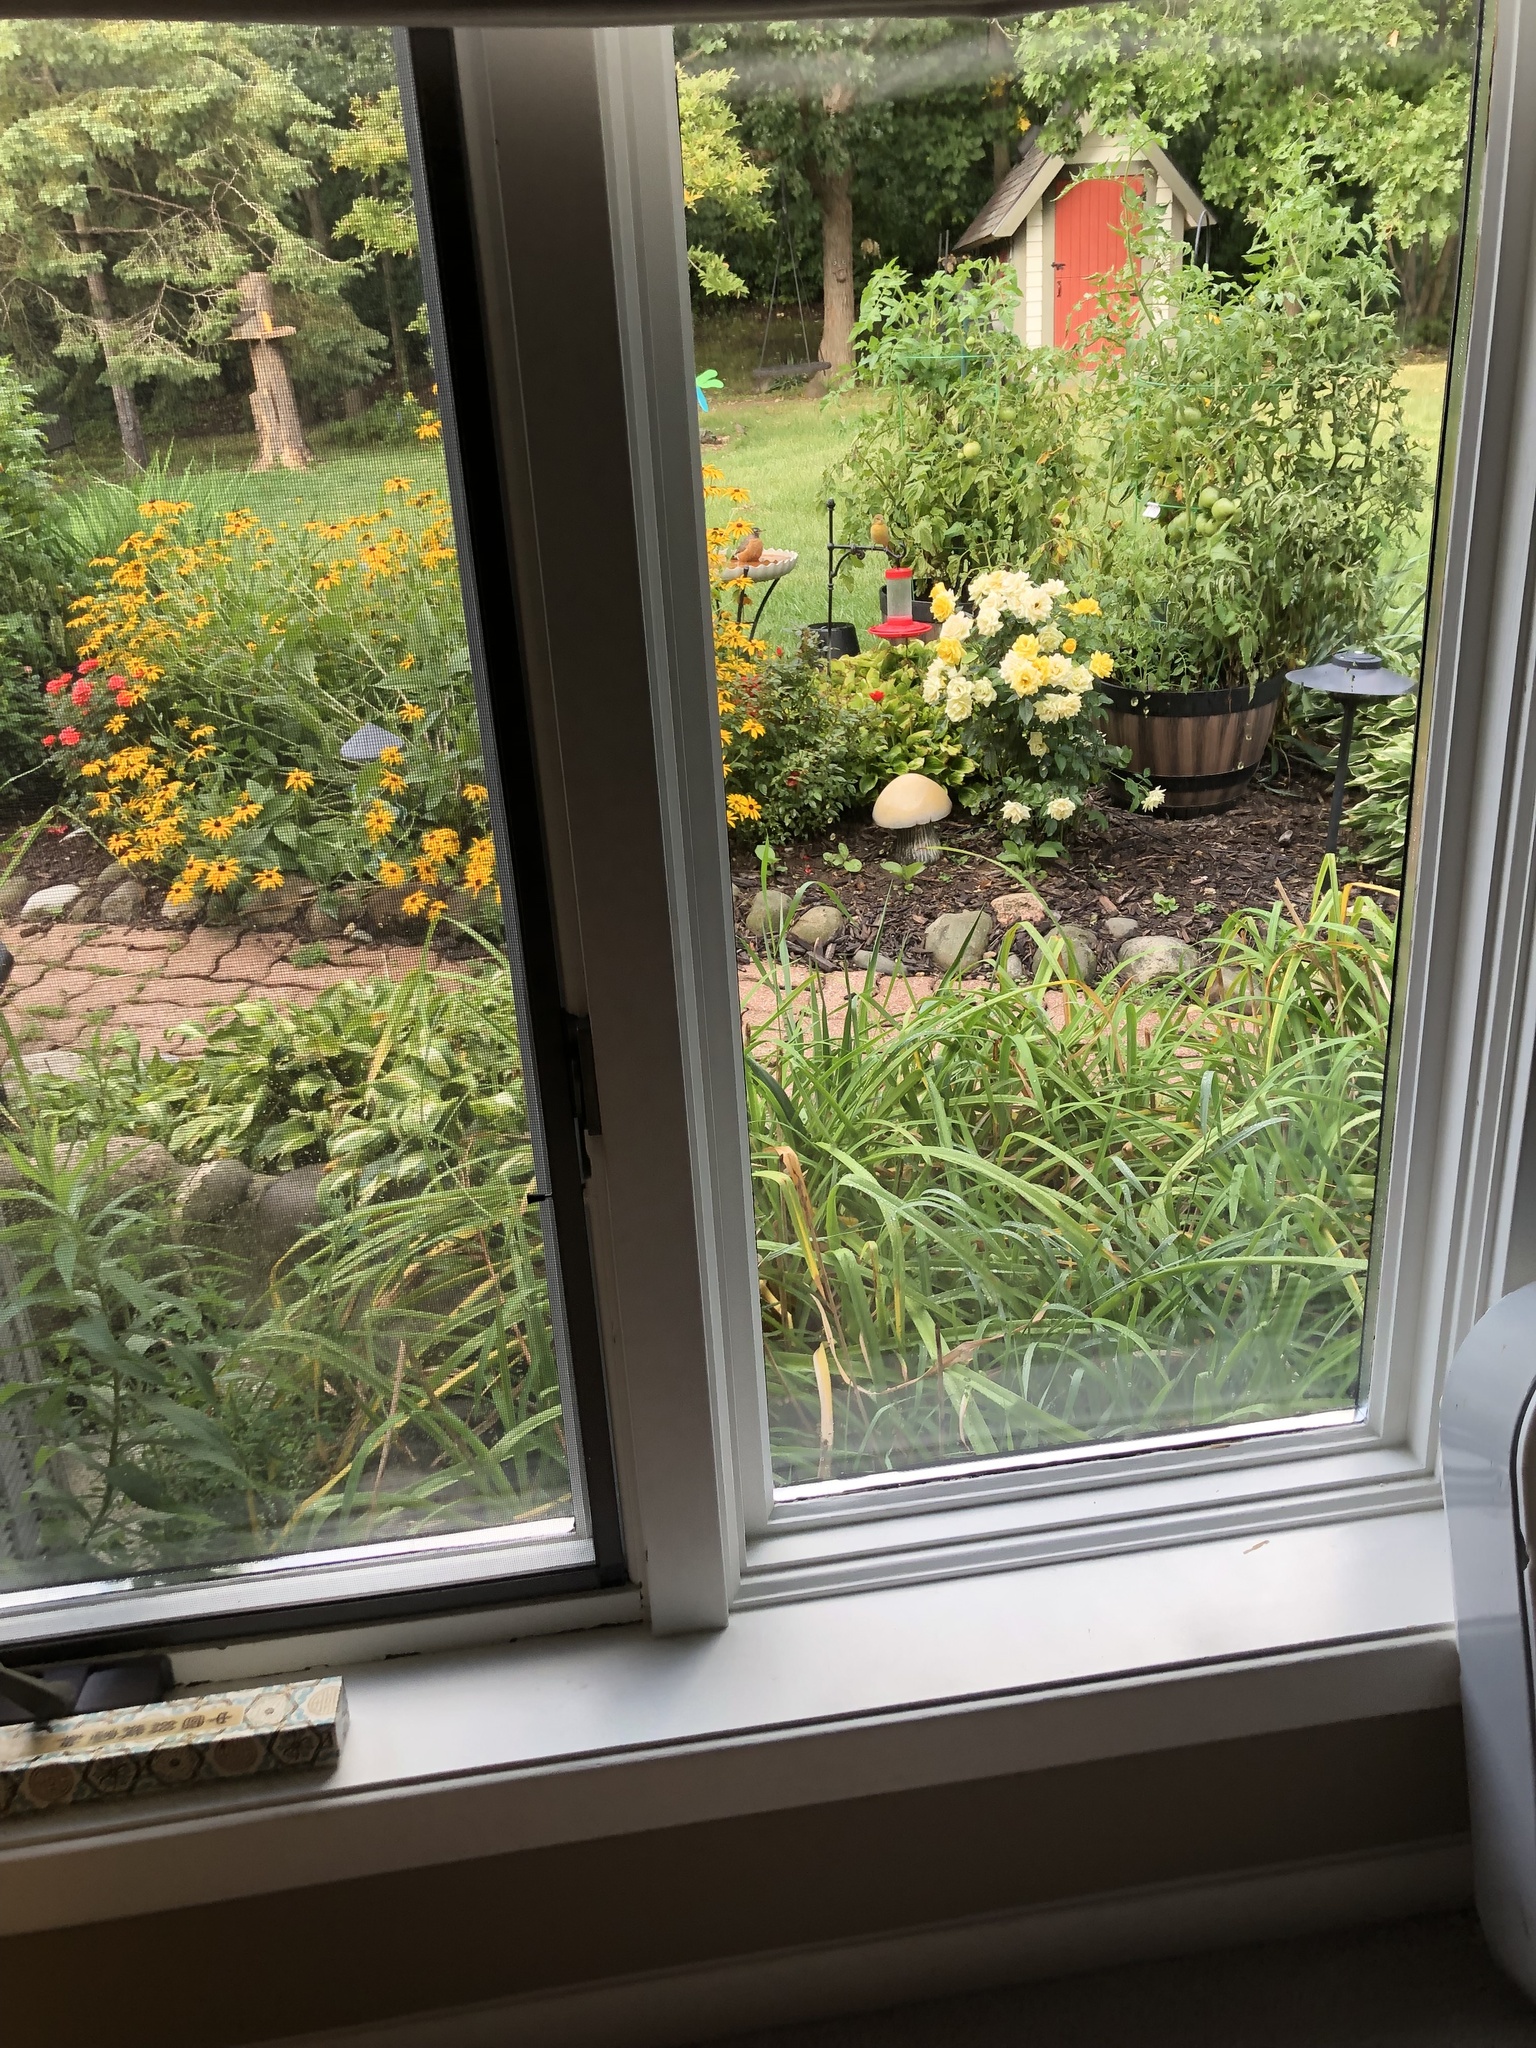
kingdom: Animalia
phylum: Chordata
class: Aves
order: Passeriformes
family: Icteridae
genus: Icterus
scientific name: Icterus galbula
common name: Baltimore oriole
